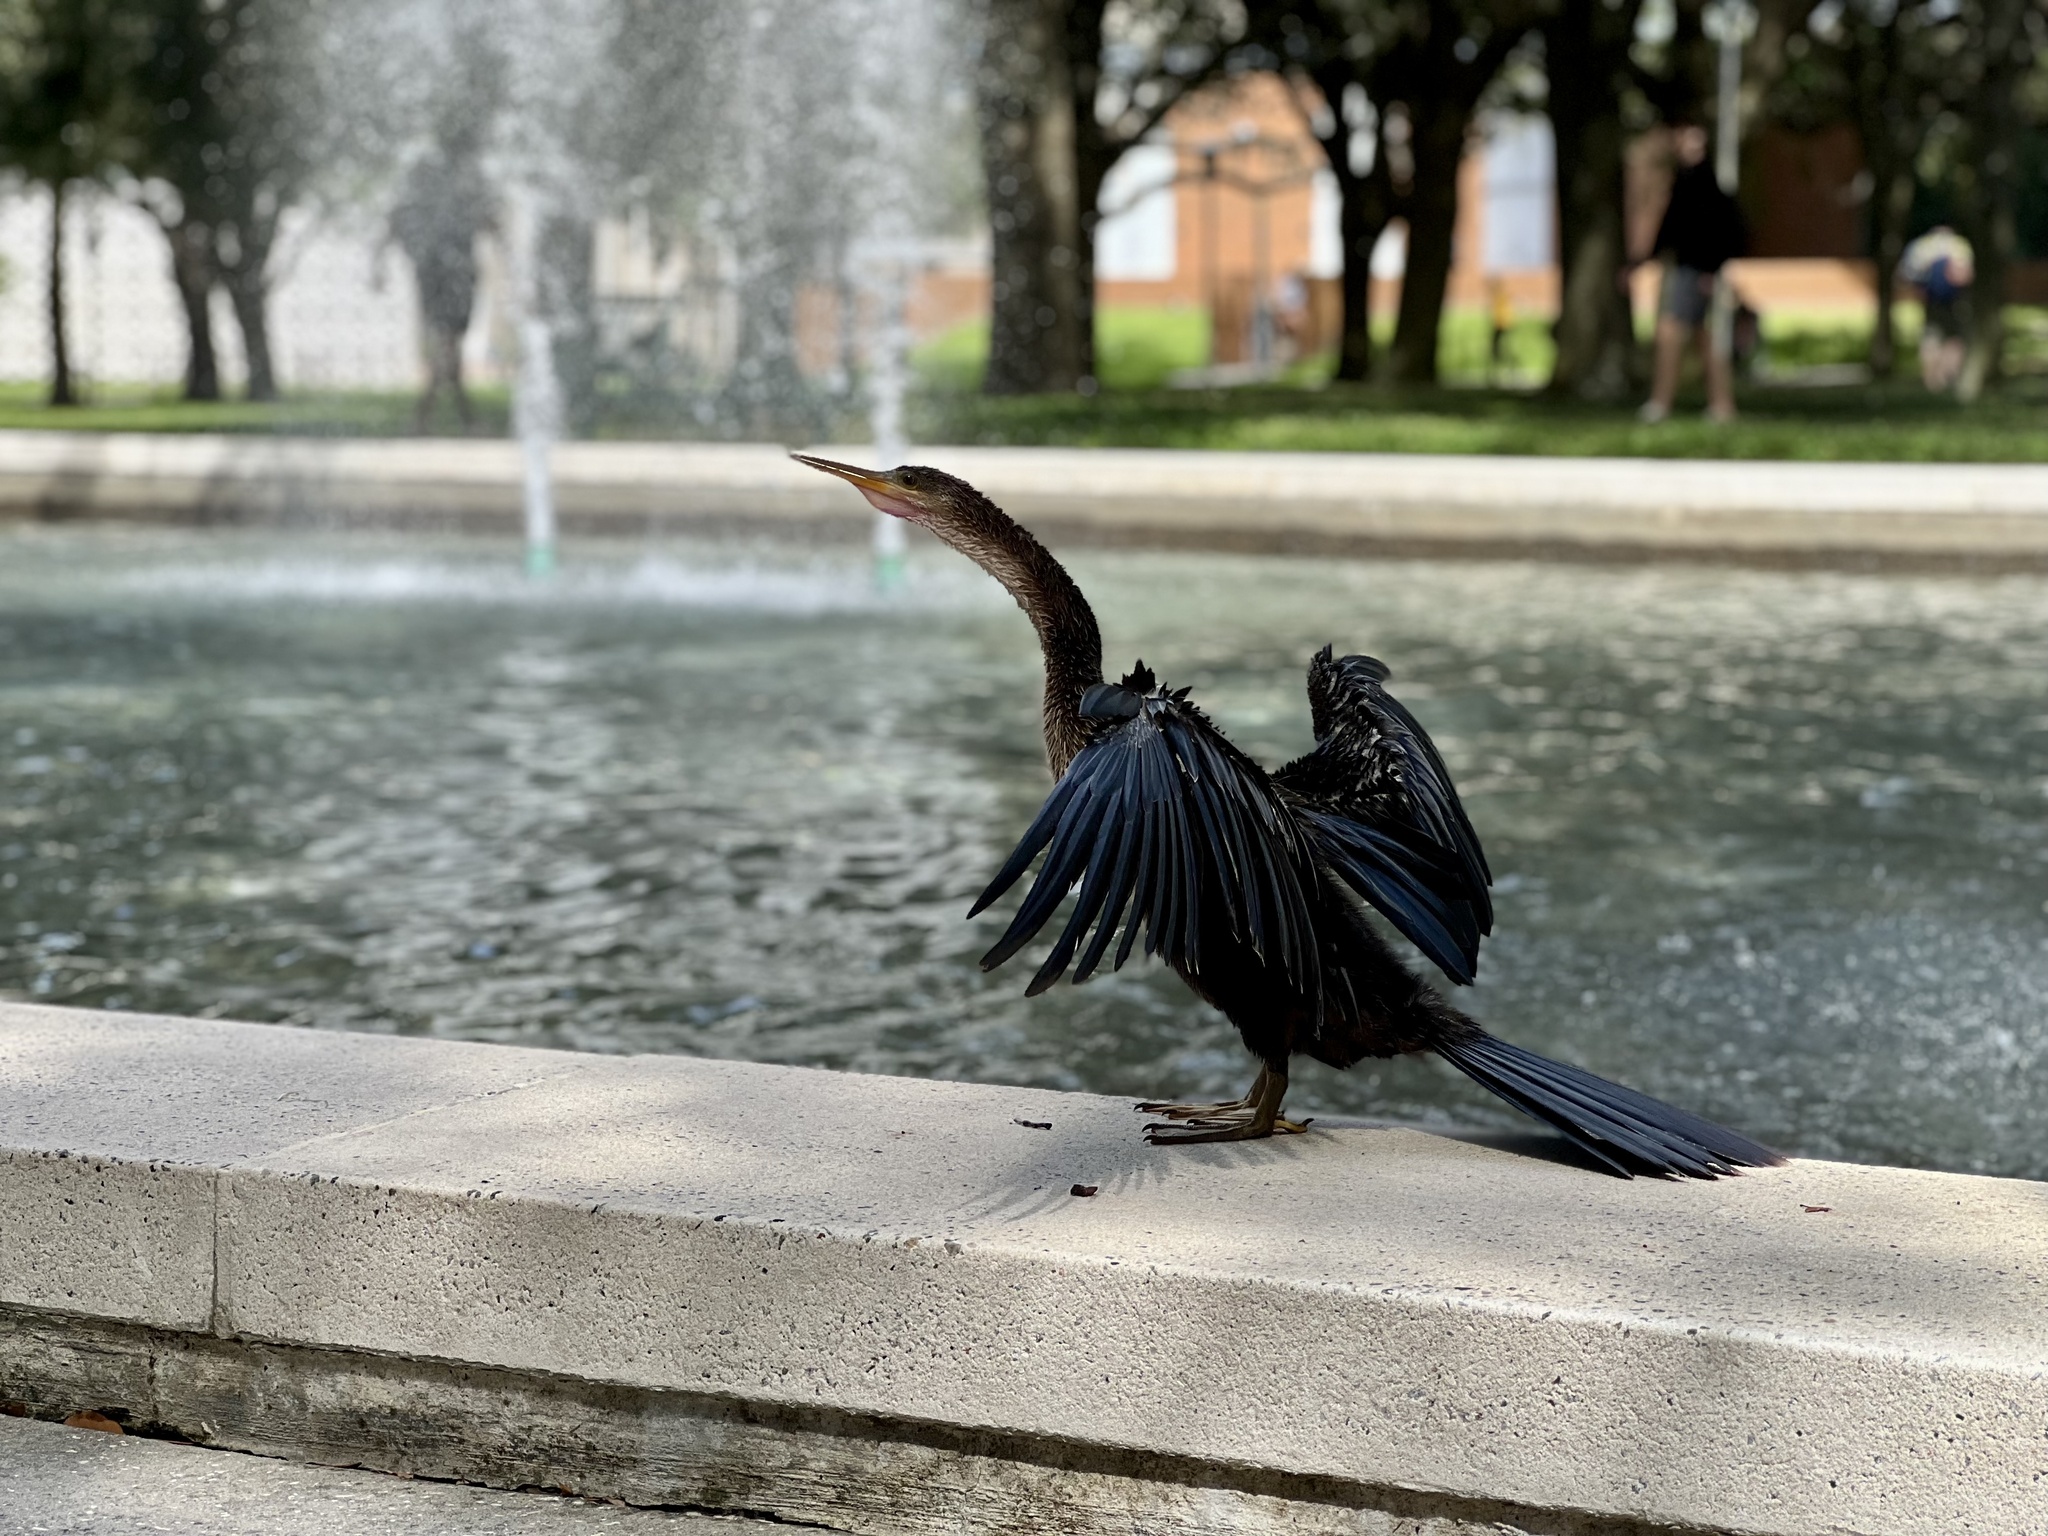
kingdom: Animalia
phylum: Chordata
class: Aves
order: Suliformes
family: Anhingidae
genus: Anhinga
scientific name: Anhinga anhinga
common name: Anhinga
